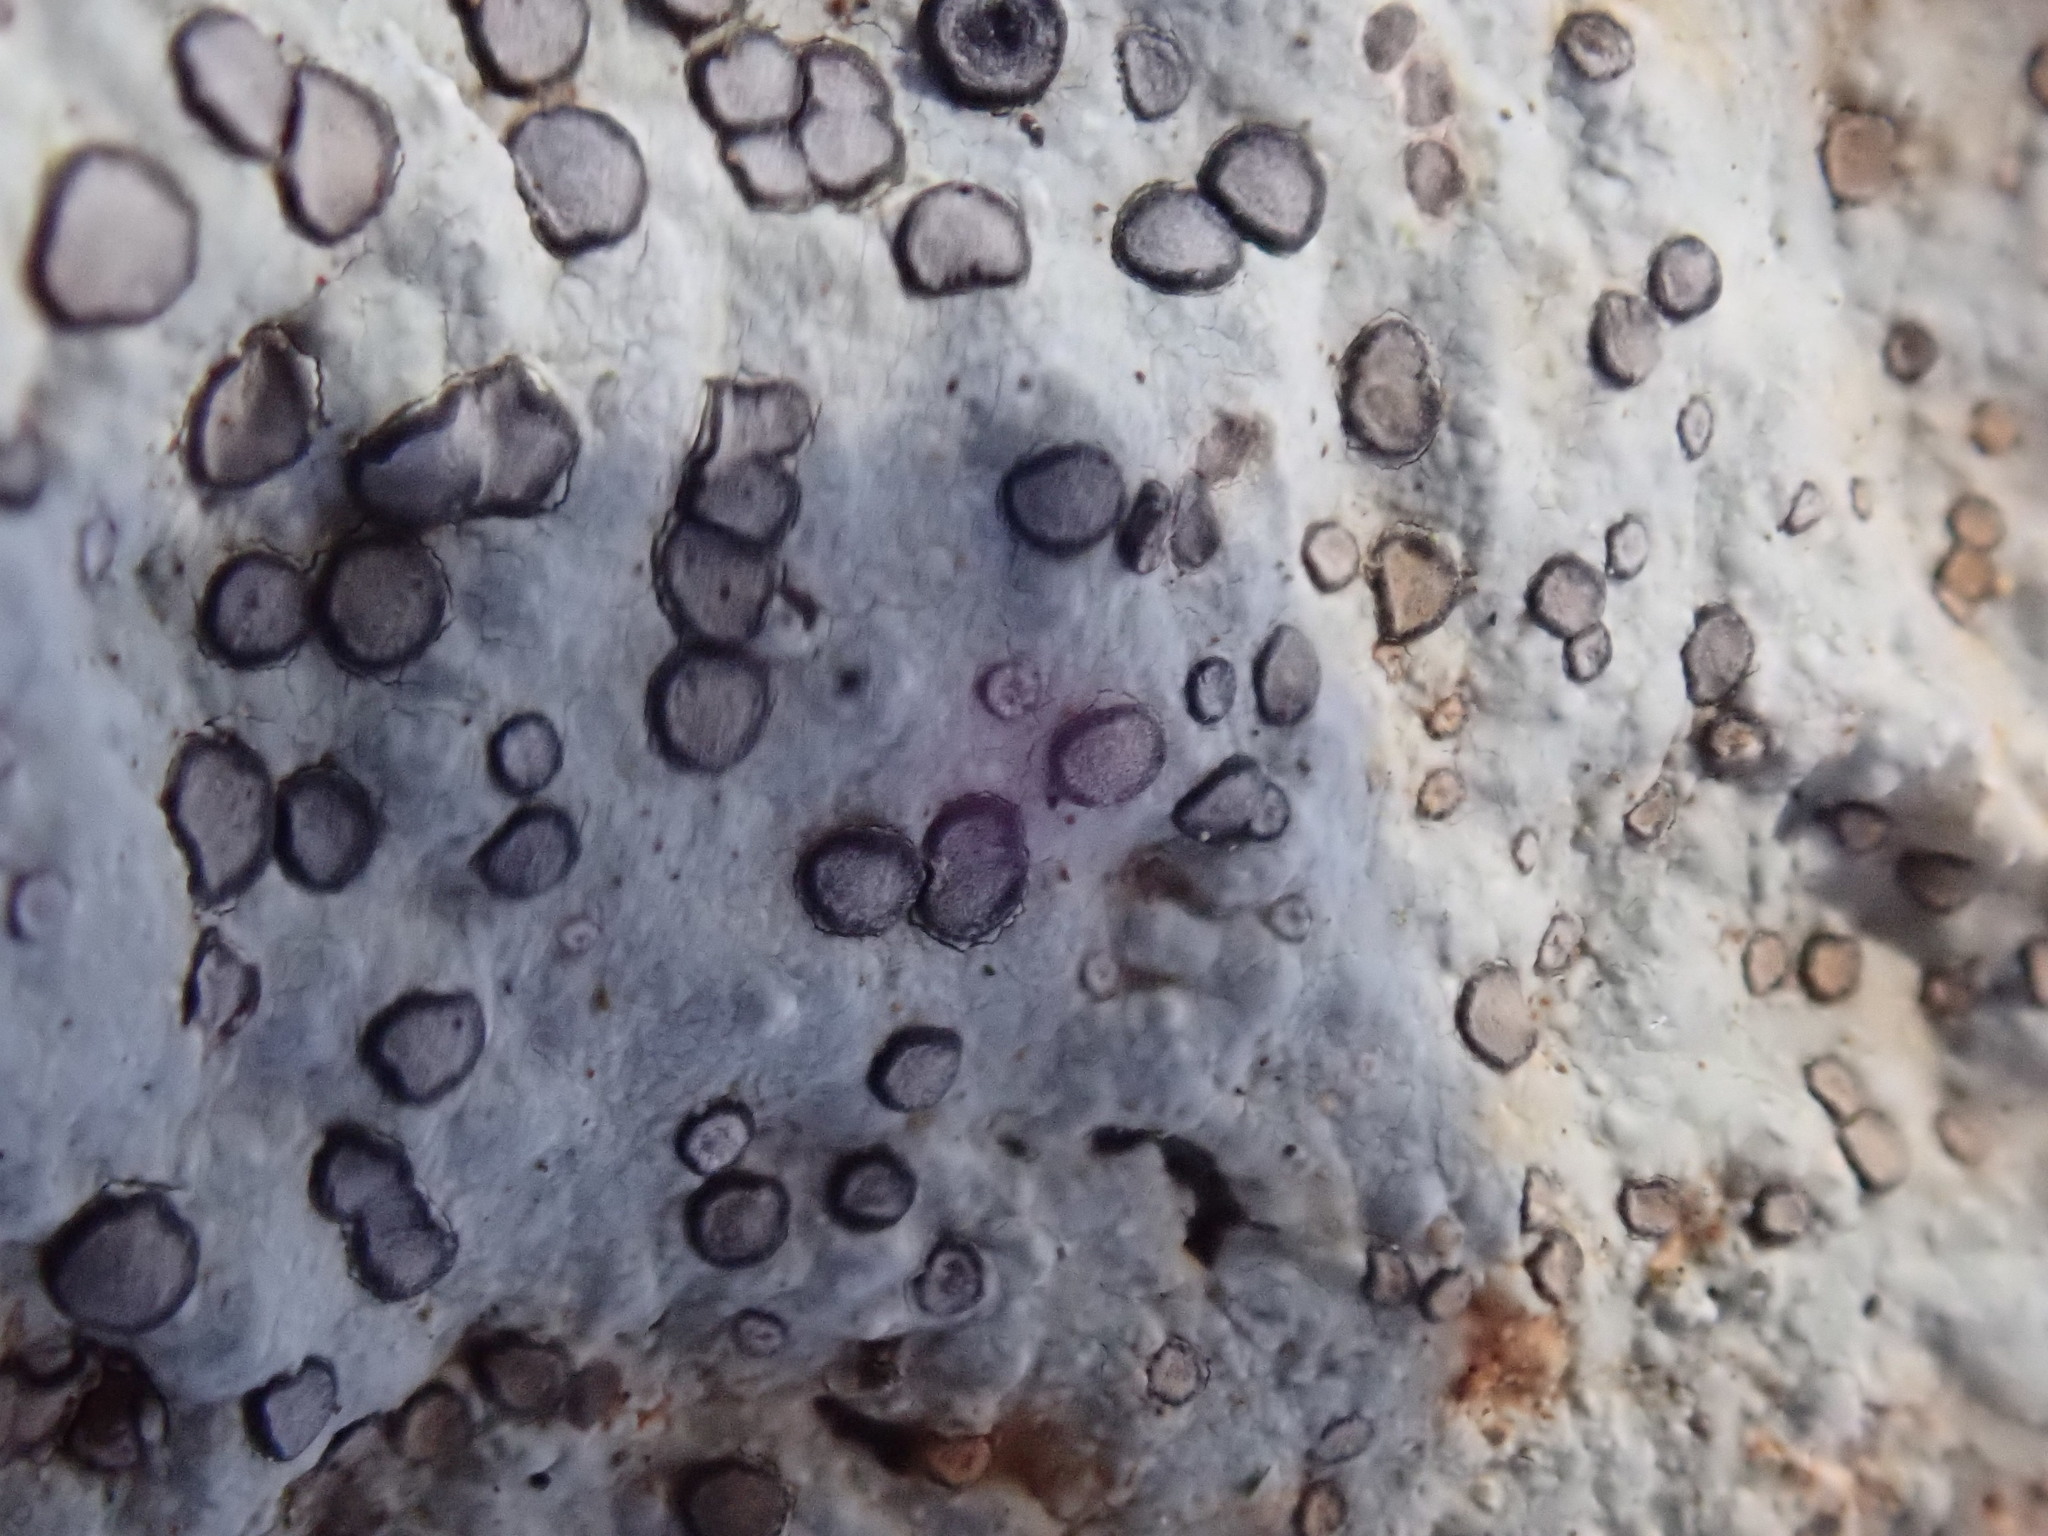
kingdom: Fungi
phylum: Ascomycota
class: Lecanoromycetes
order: Lecideales
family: Lecideaceae
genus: Porpidia
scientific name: Porpidia albocaerulescens
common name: Smokey-eyed boulder lichen
